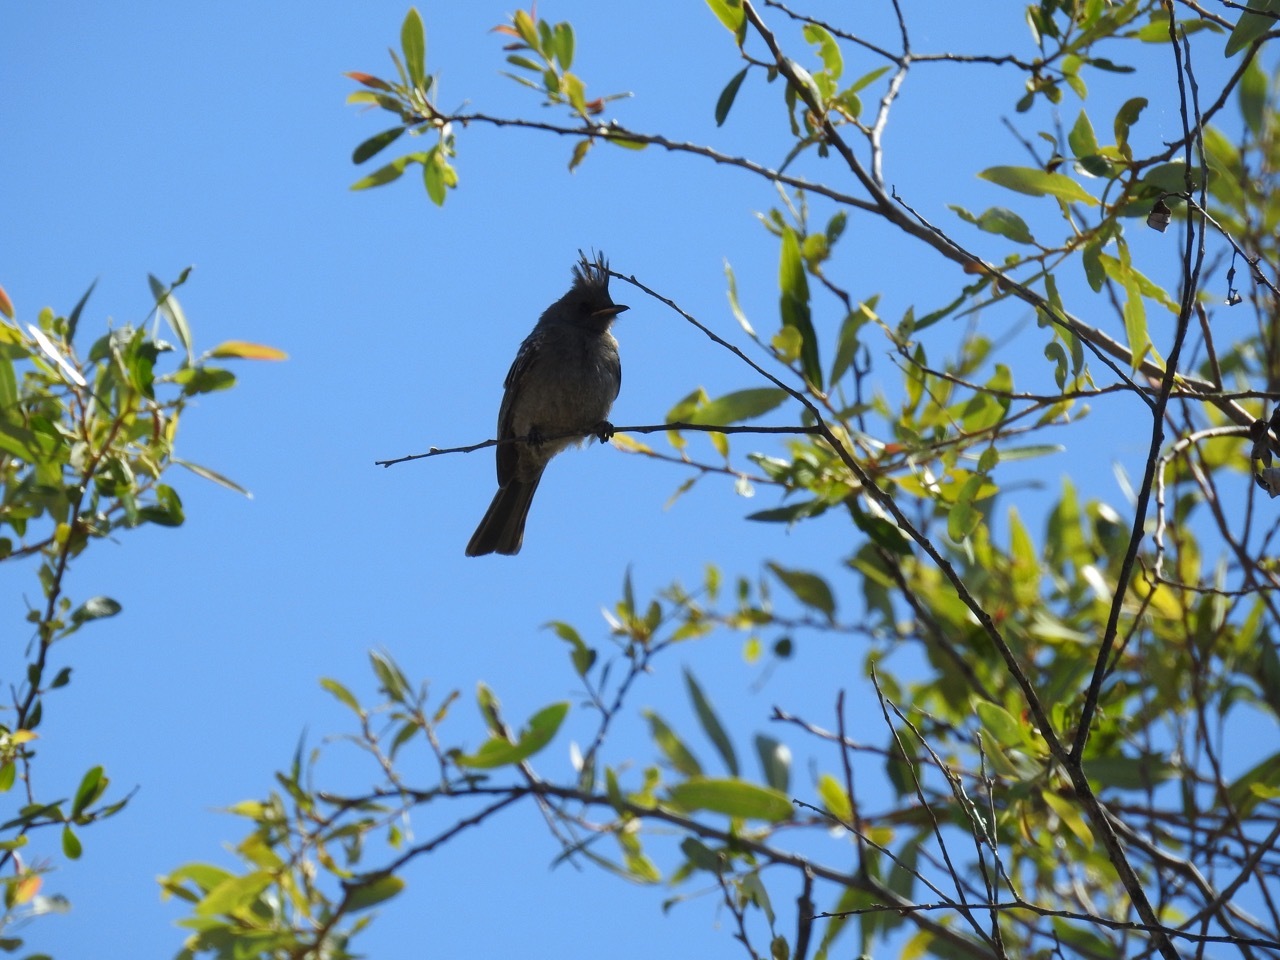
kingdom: Animalia
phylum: Chordata
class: Aves
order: Passeriformes
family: Ptilogonatidae
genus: Phainopepla
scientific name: Phainopepla nitens
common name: Phainopepla
